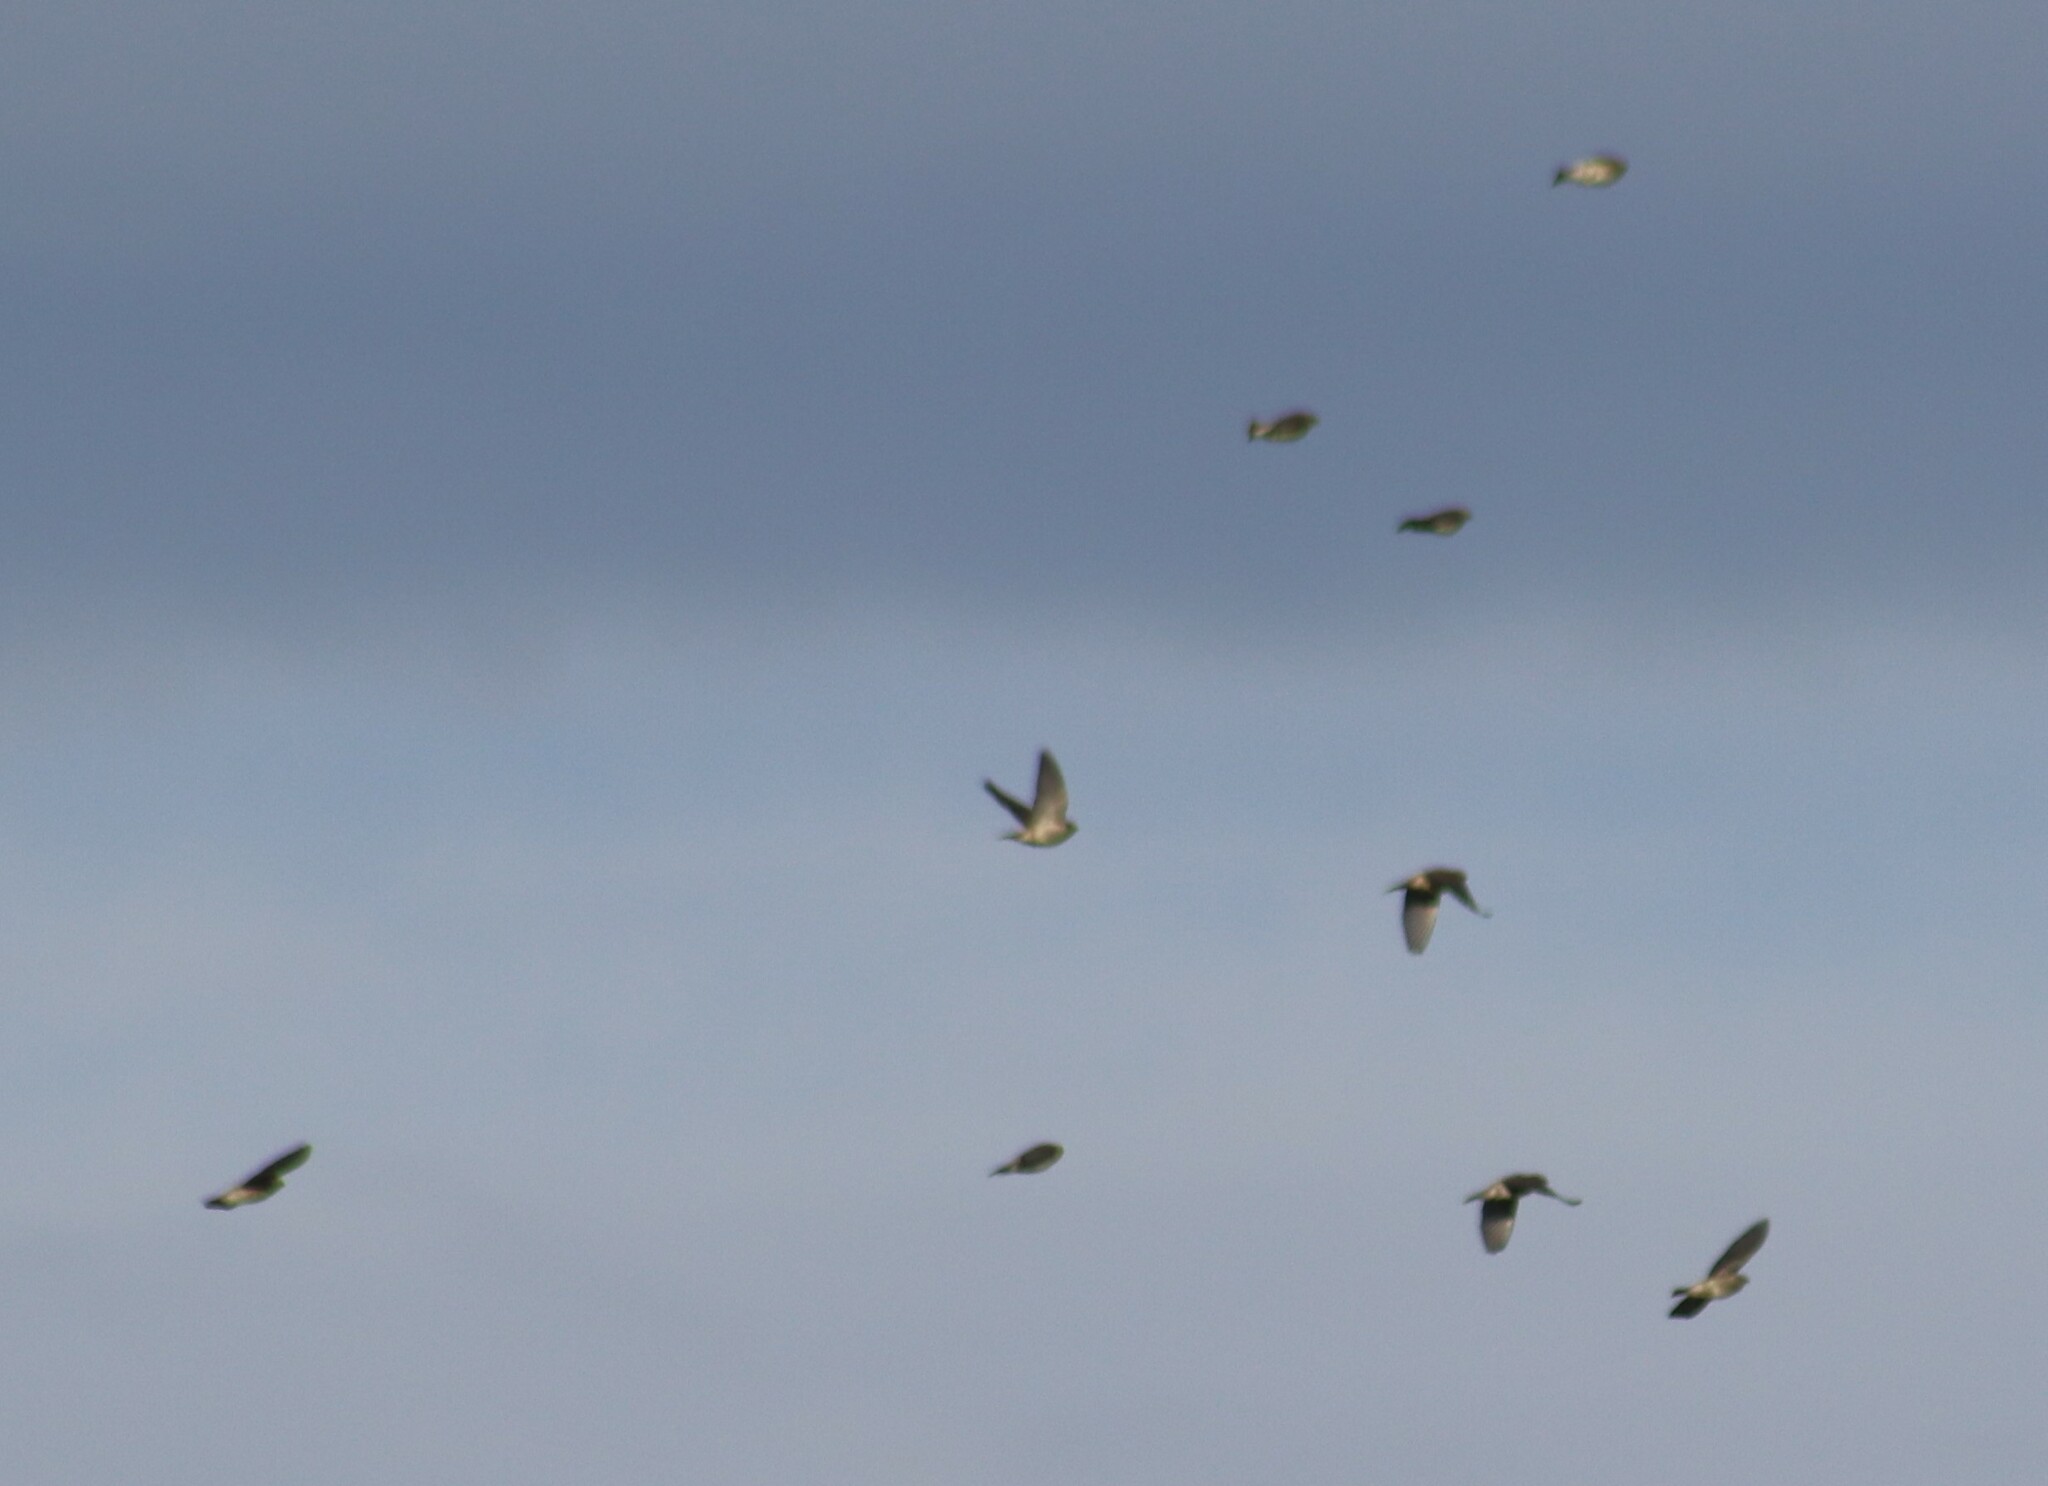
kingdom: Animalia
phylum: Chordata
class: Aves
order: Passeriformes
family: Bombycillidae
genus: Bombycilla
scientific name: Bombycilla cedrorum
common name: Cedar waxwing
